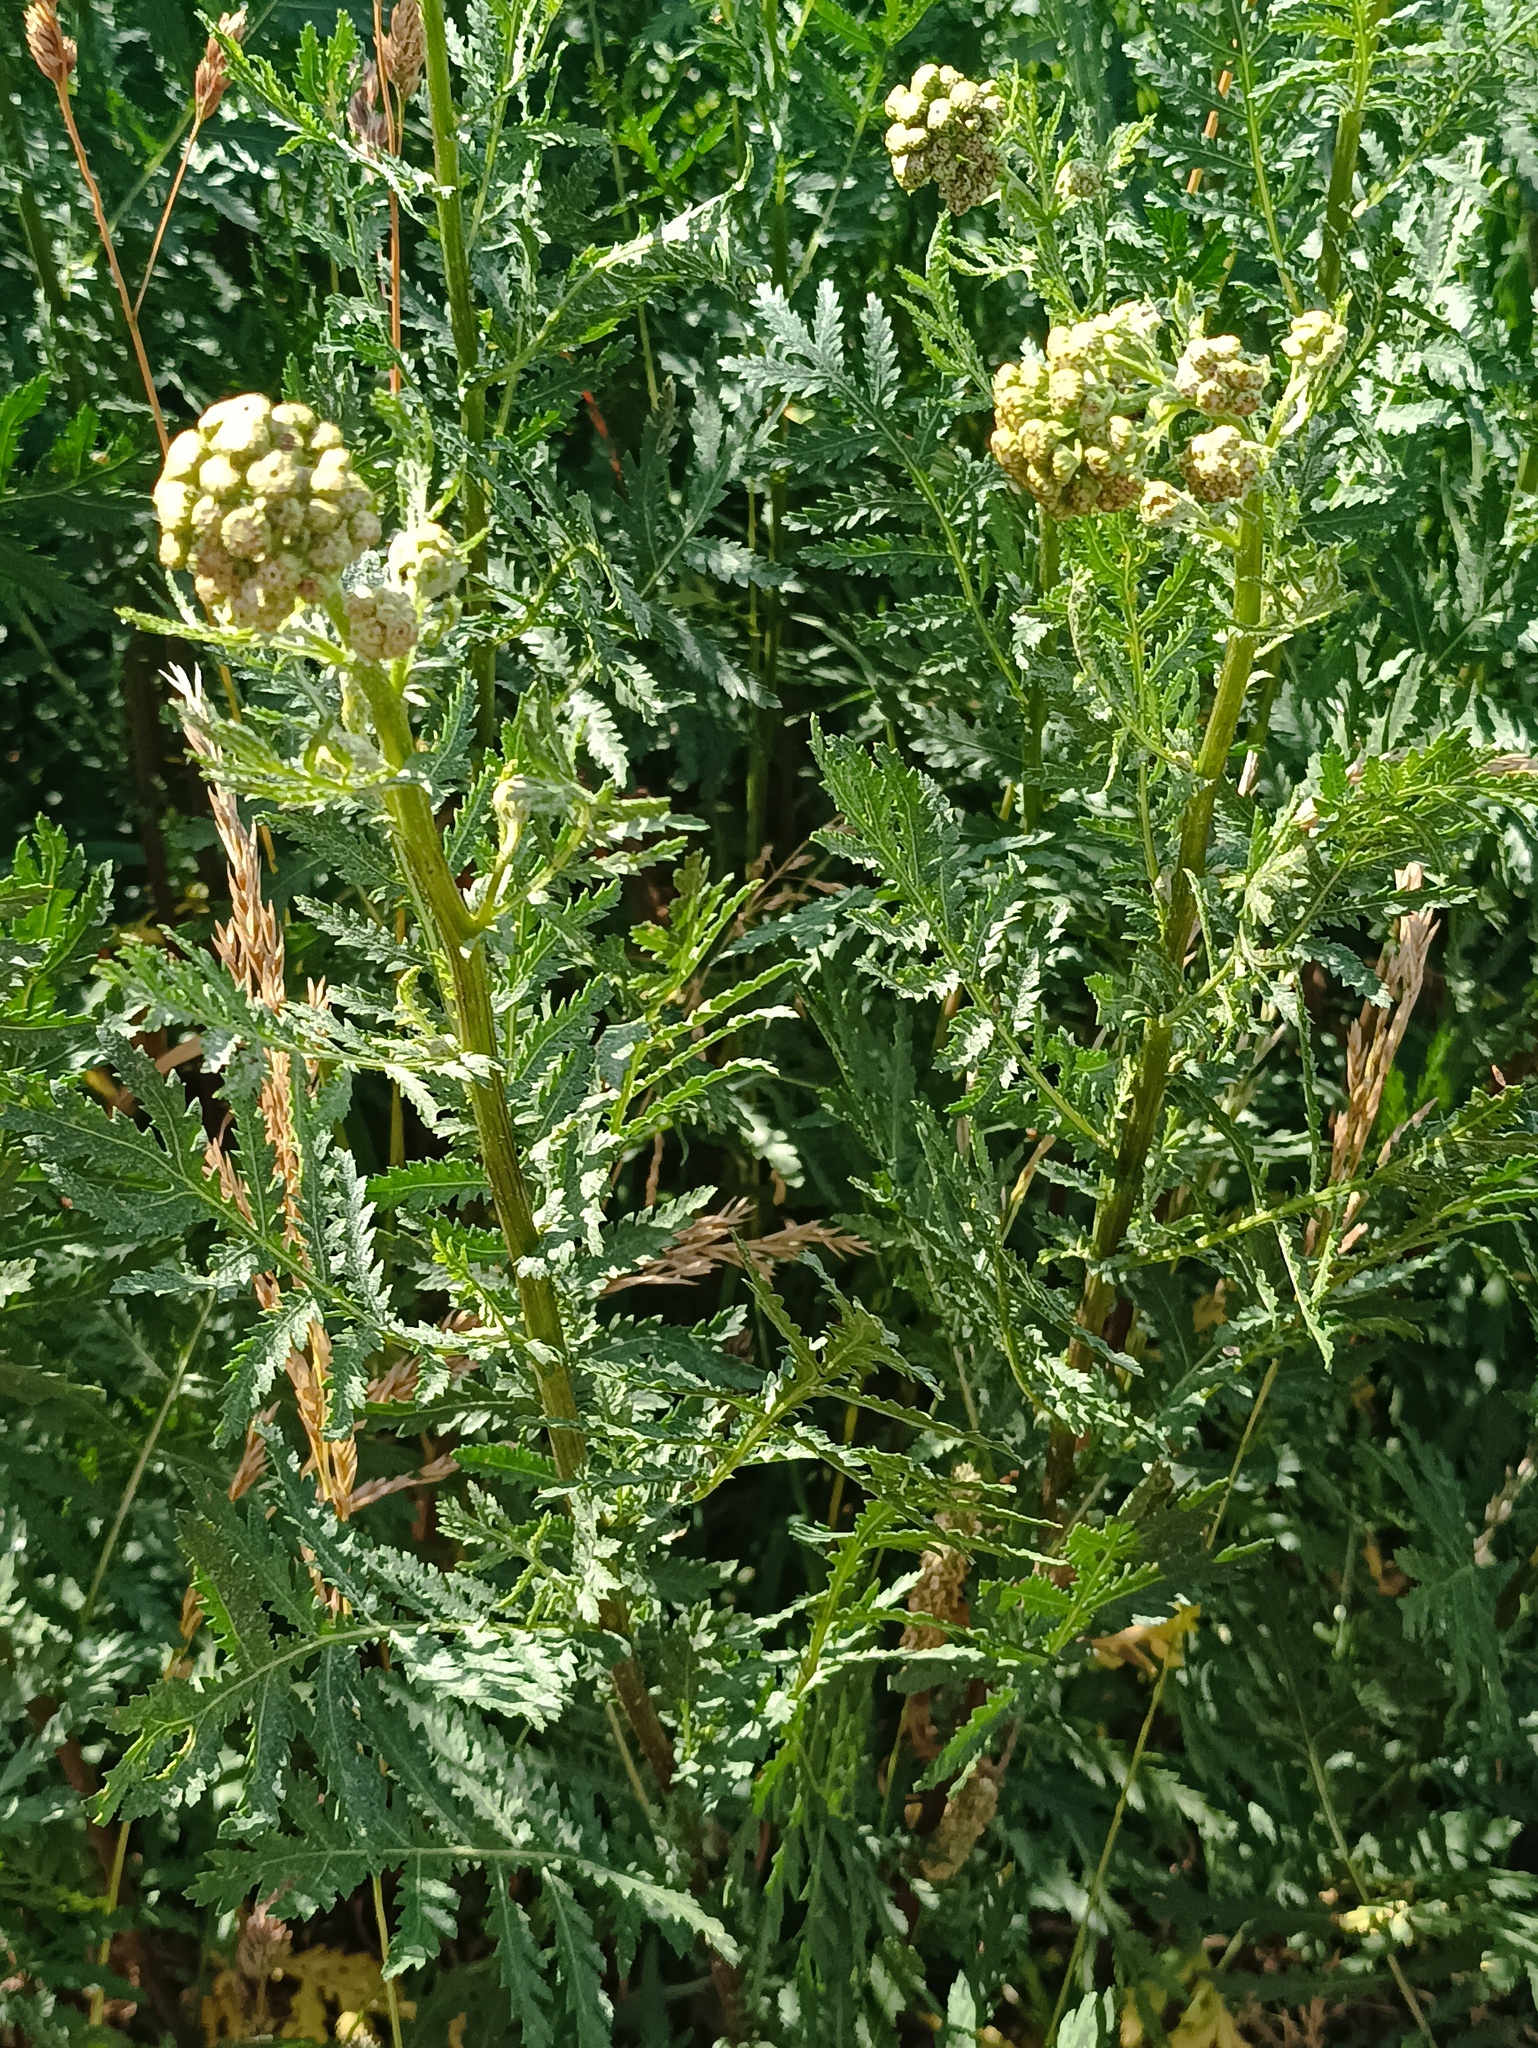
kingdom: Plantae
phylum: Tracheophyta
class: Magnoliopsida
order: Asterales
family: Asteraceae
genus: Tanacetum
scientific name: Tanacetum vulgare
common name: Common tansy
